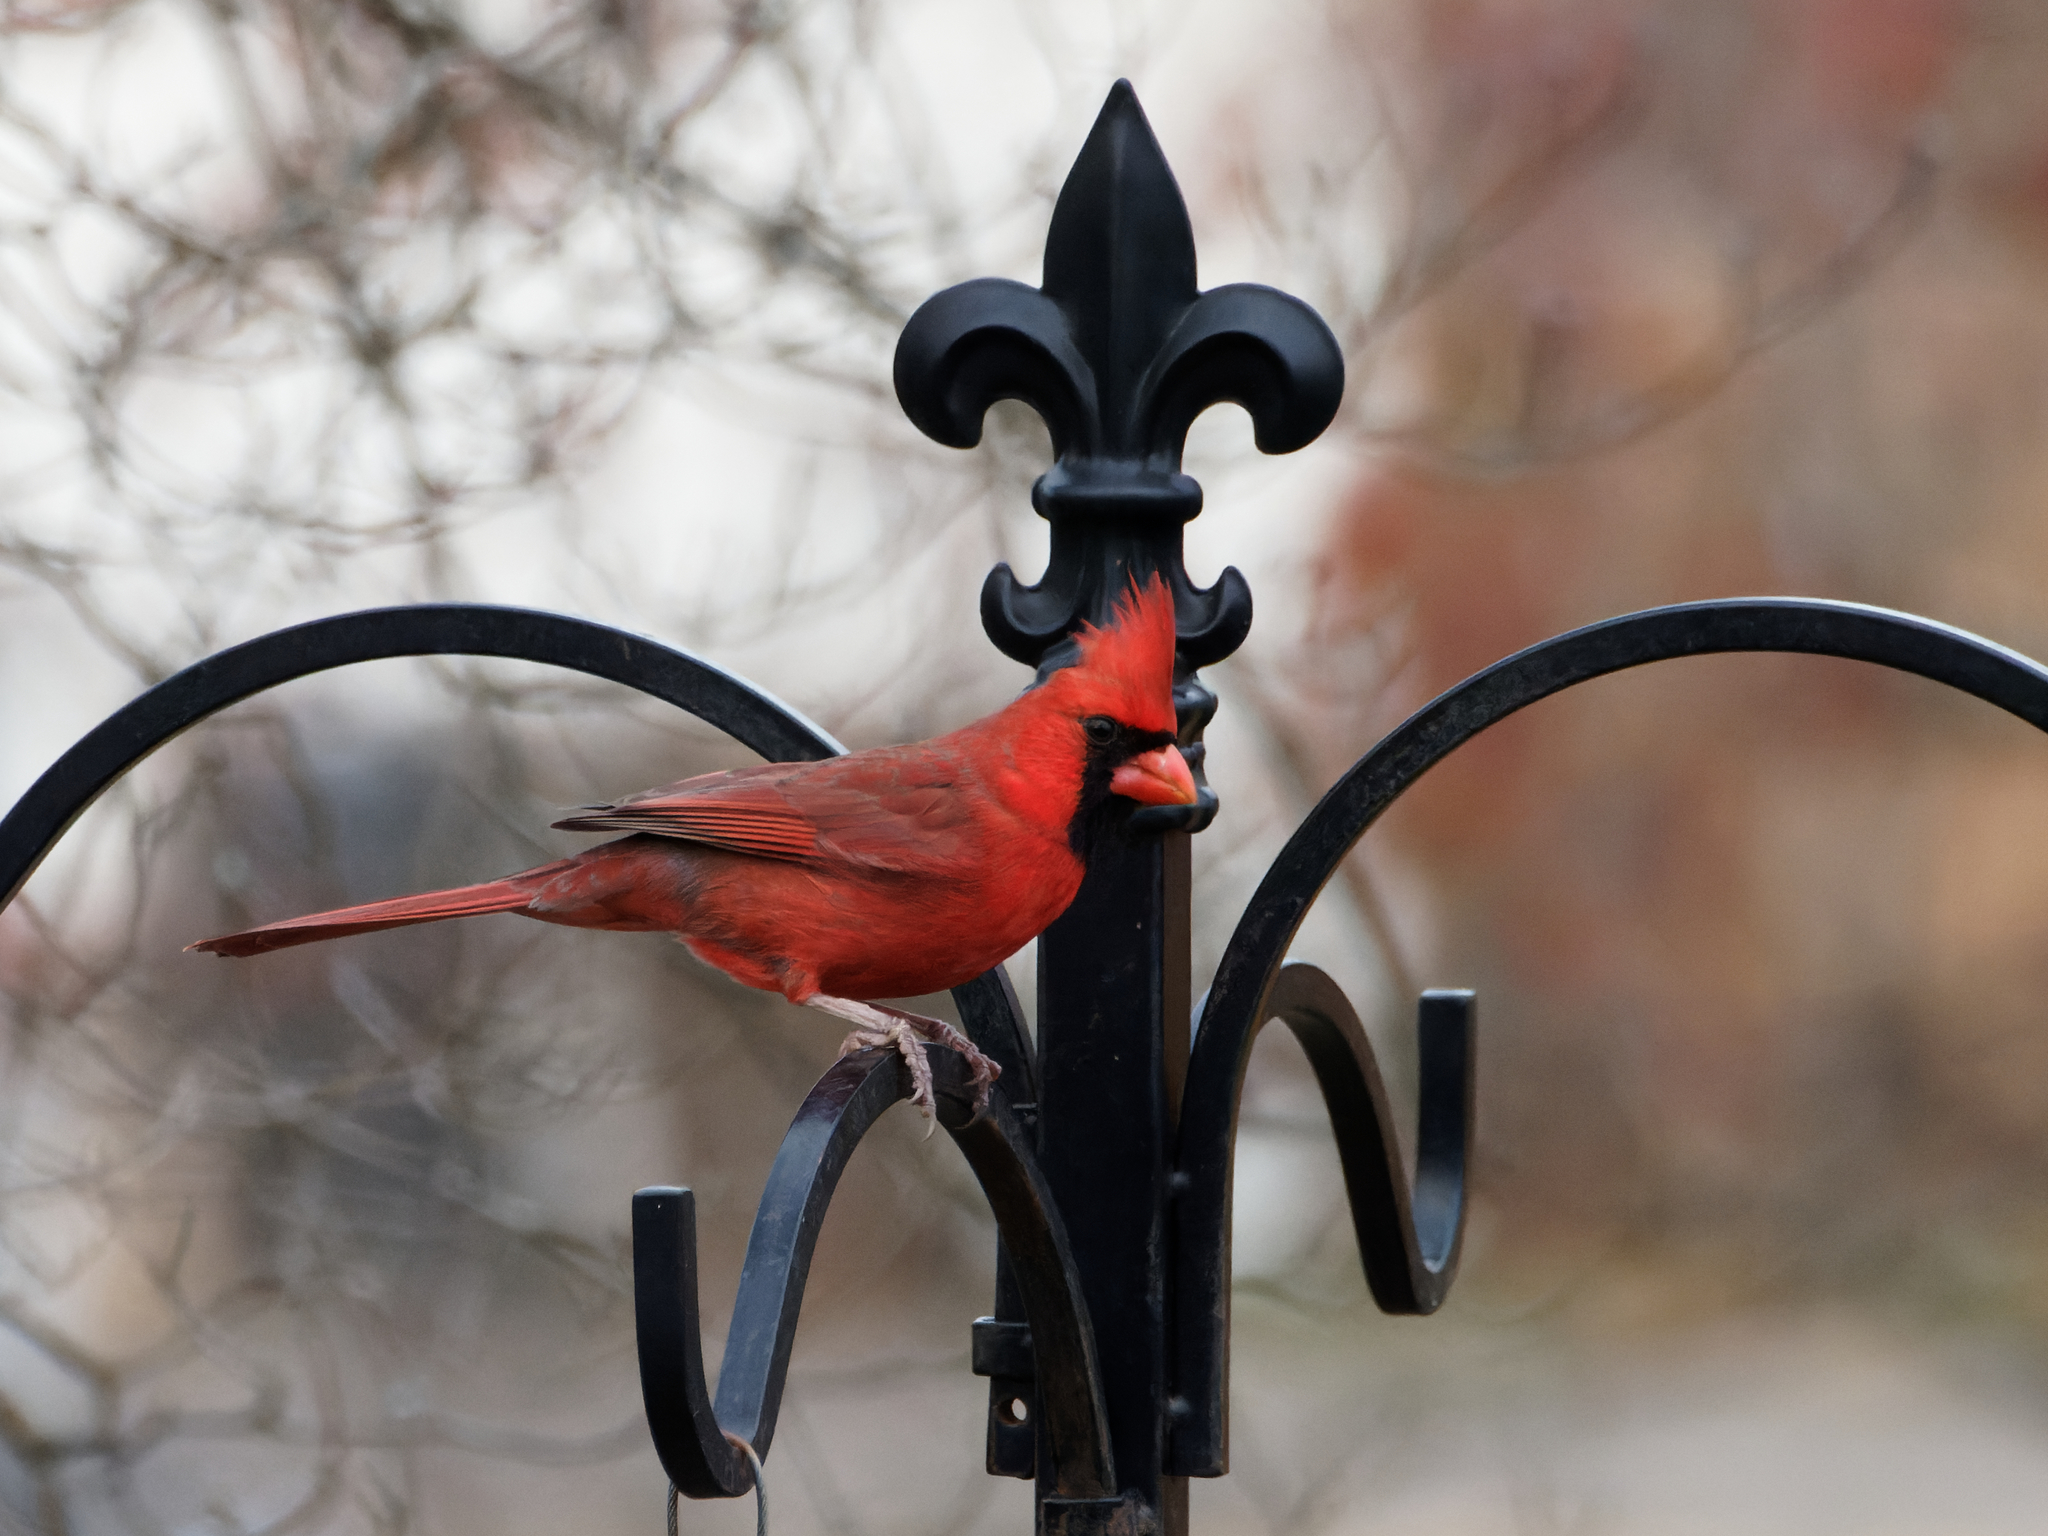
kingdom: Animalia
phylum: Chordata
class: Aves
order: Passeriformes
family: Cardinalidae
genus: Cardinalis
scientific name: Cardinalis cardinalis
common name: Northern cardinal
